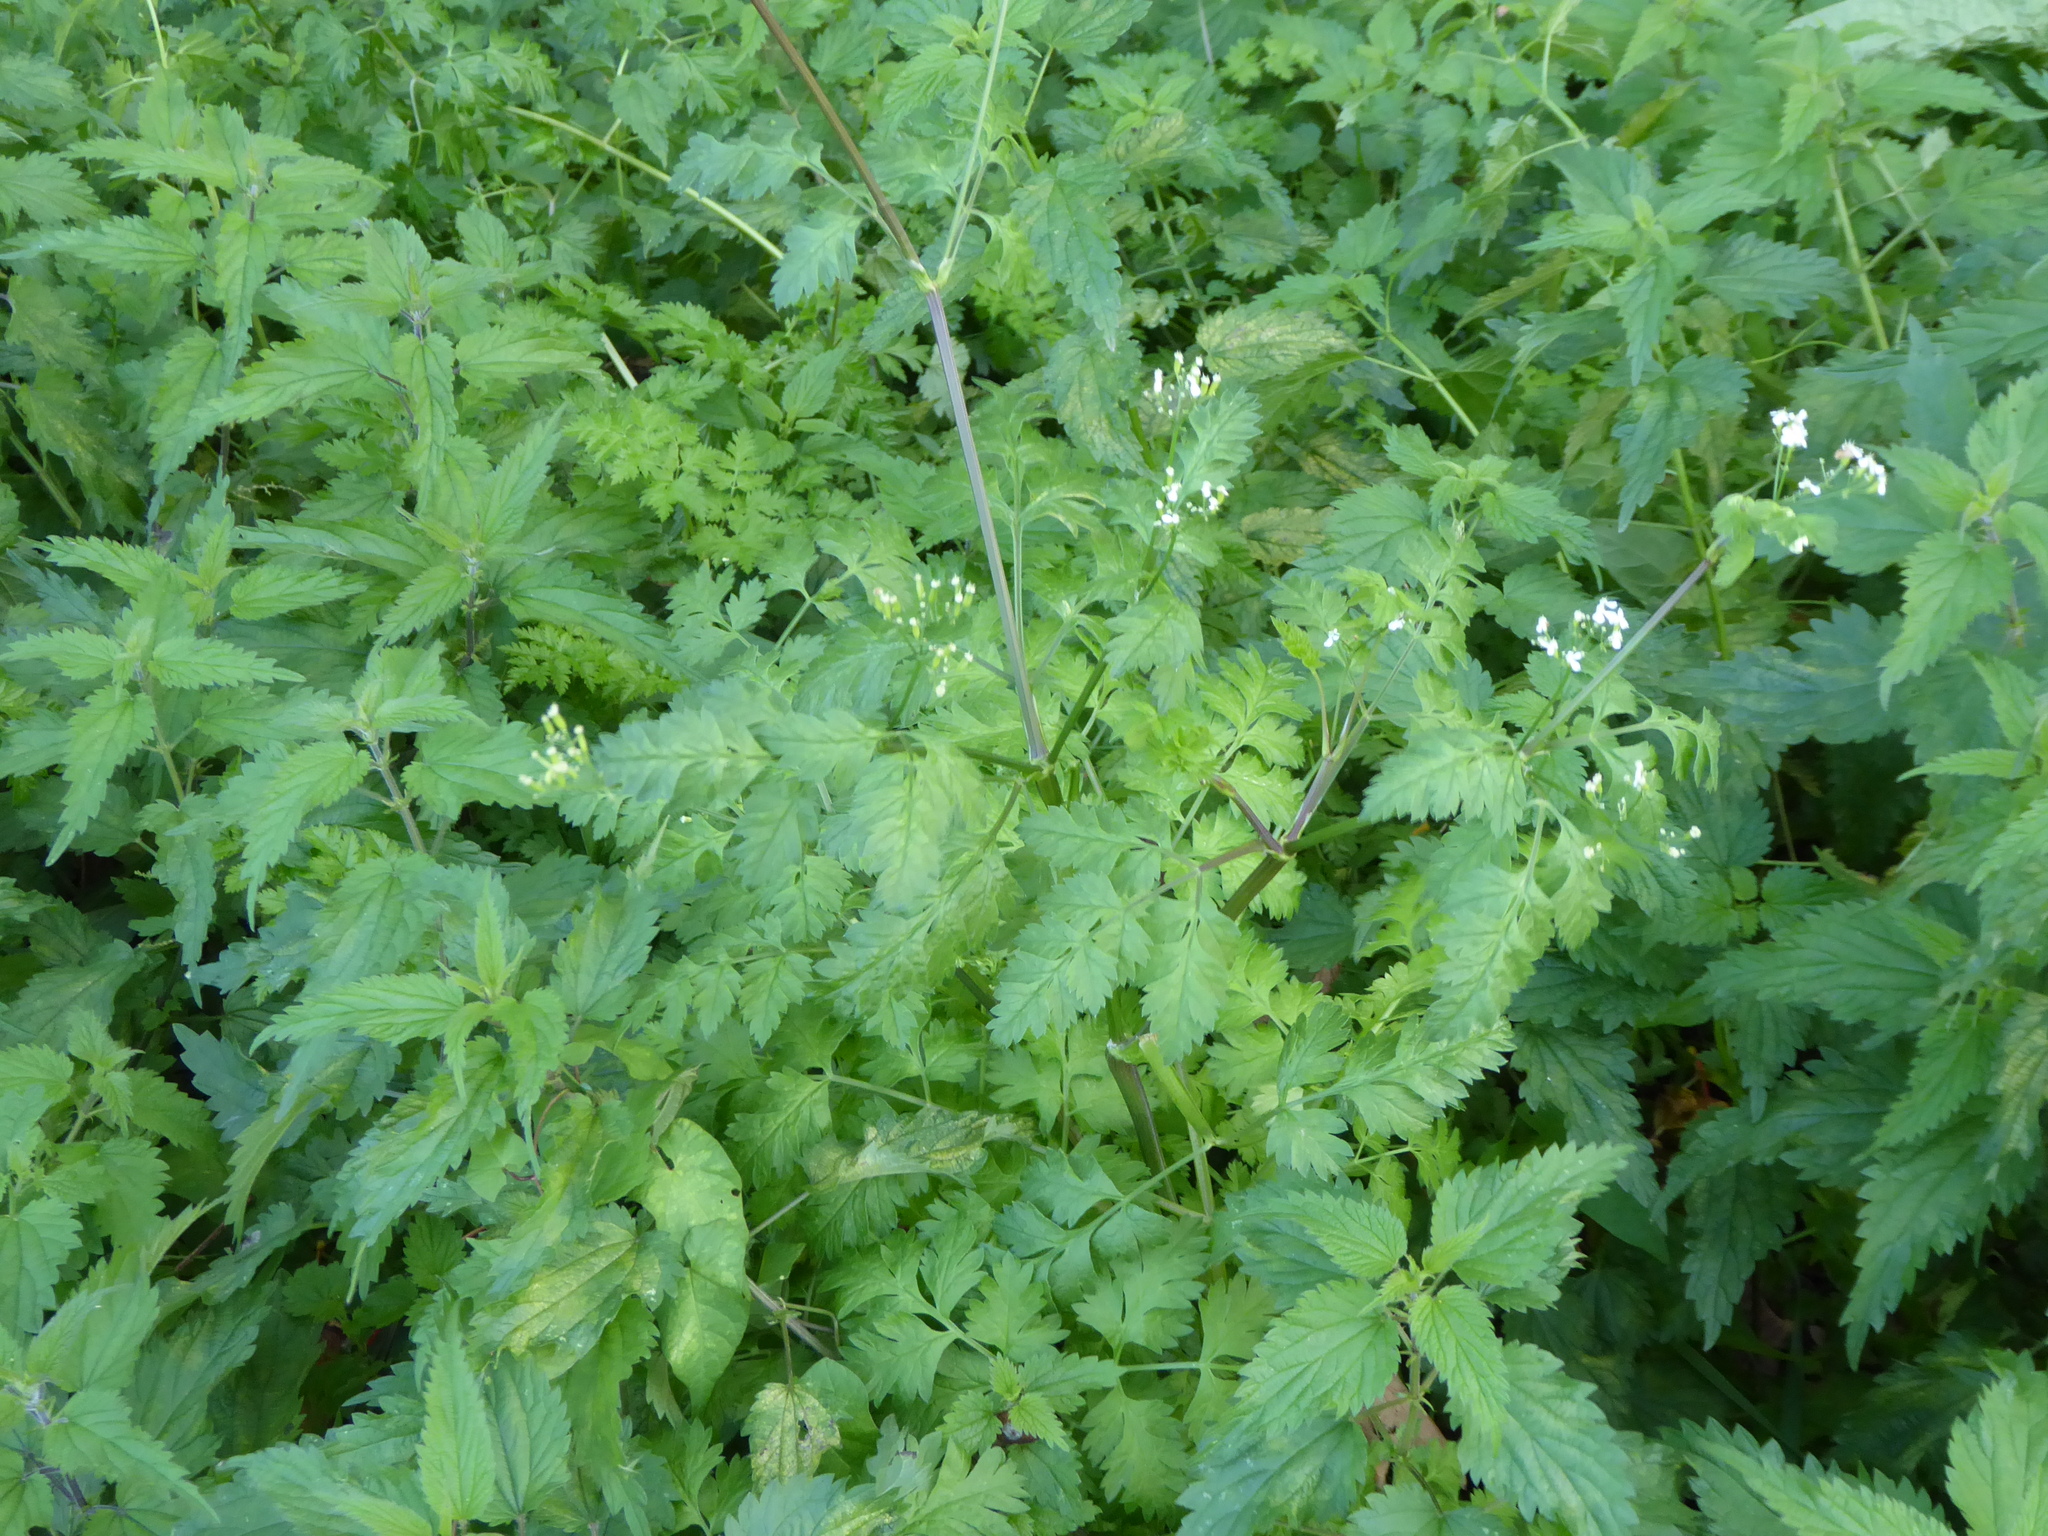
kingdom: Plantae
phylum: Tracheophyta
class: Magnoliopsida
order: Apiales
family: Apiaceae
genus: Anthriscus
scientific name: Anthriscus sylvestris
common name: Cow parsley
